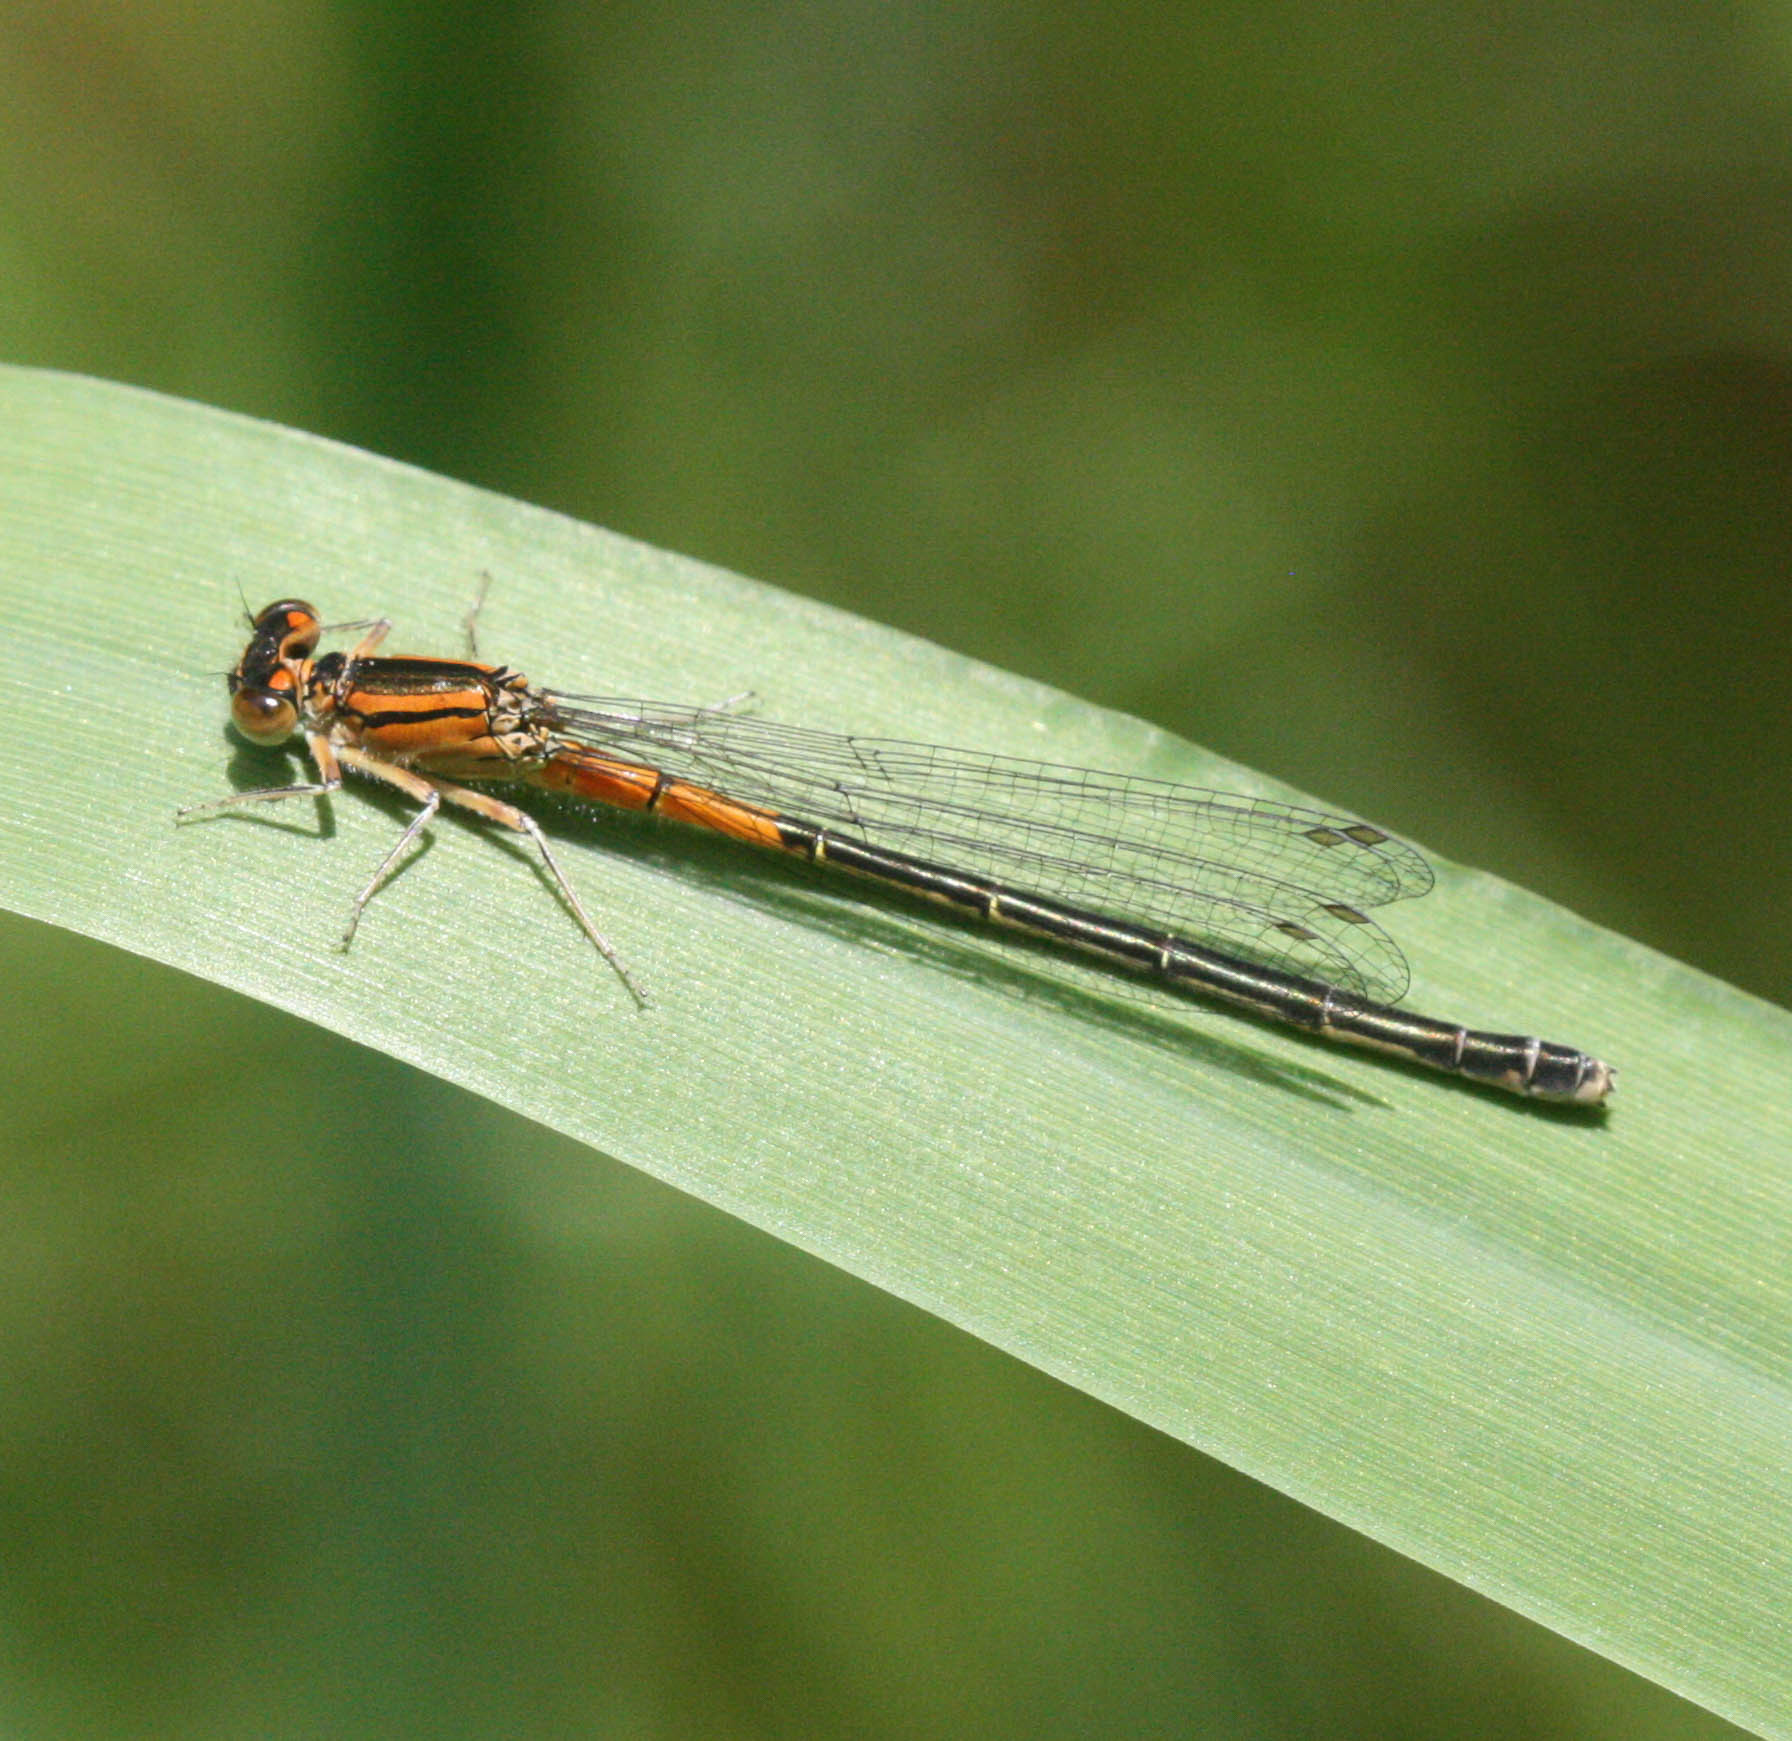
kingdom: Animalia
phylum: Arthropoda
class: Insecta
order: Odonata
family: Coenagrionidae
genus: Ischnura
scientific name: Ischnura verticalis
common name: Eastern forktail
